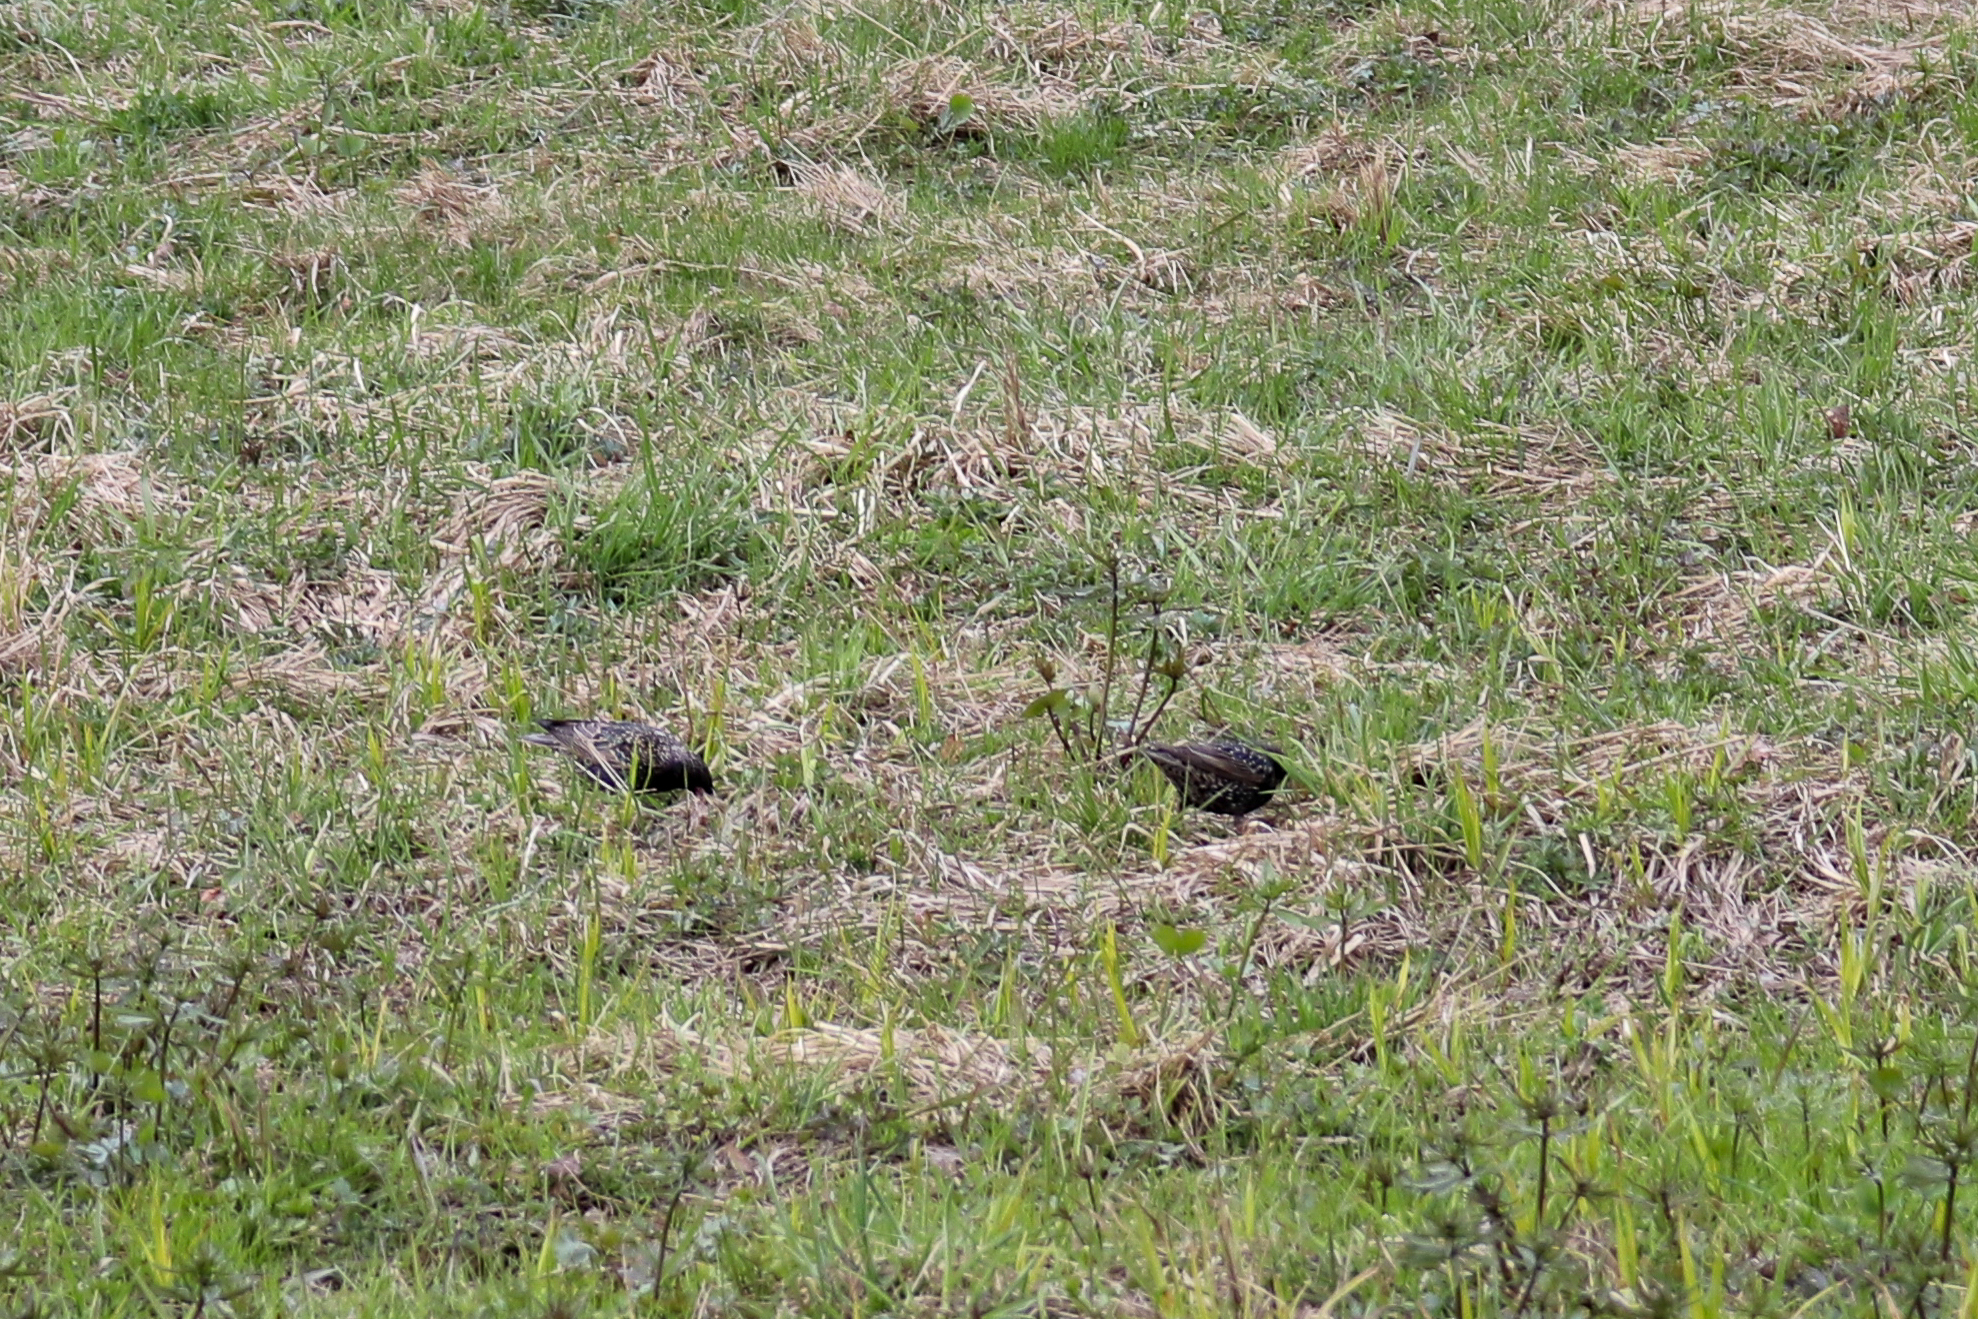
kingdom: Animalia
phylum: Chordata
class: Aves
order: Passeriformes
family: Sturnidae
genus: Sturnus
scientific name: Sturnus vulgaris
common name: Common starling
